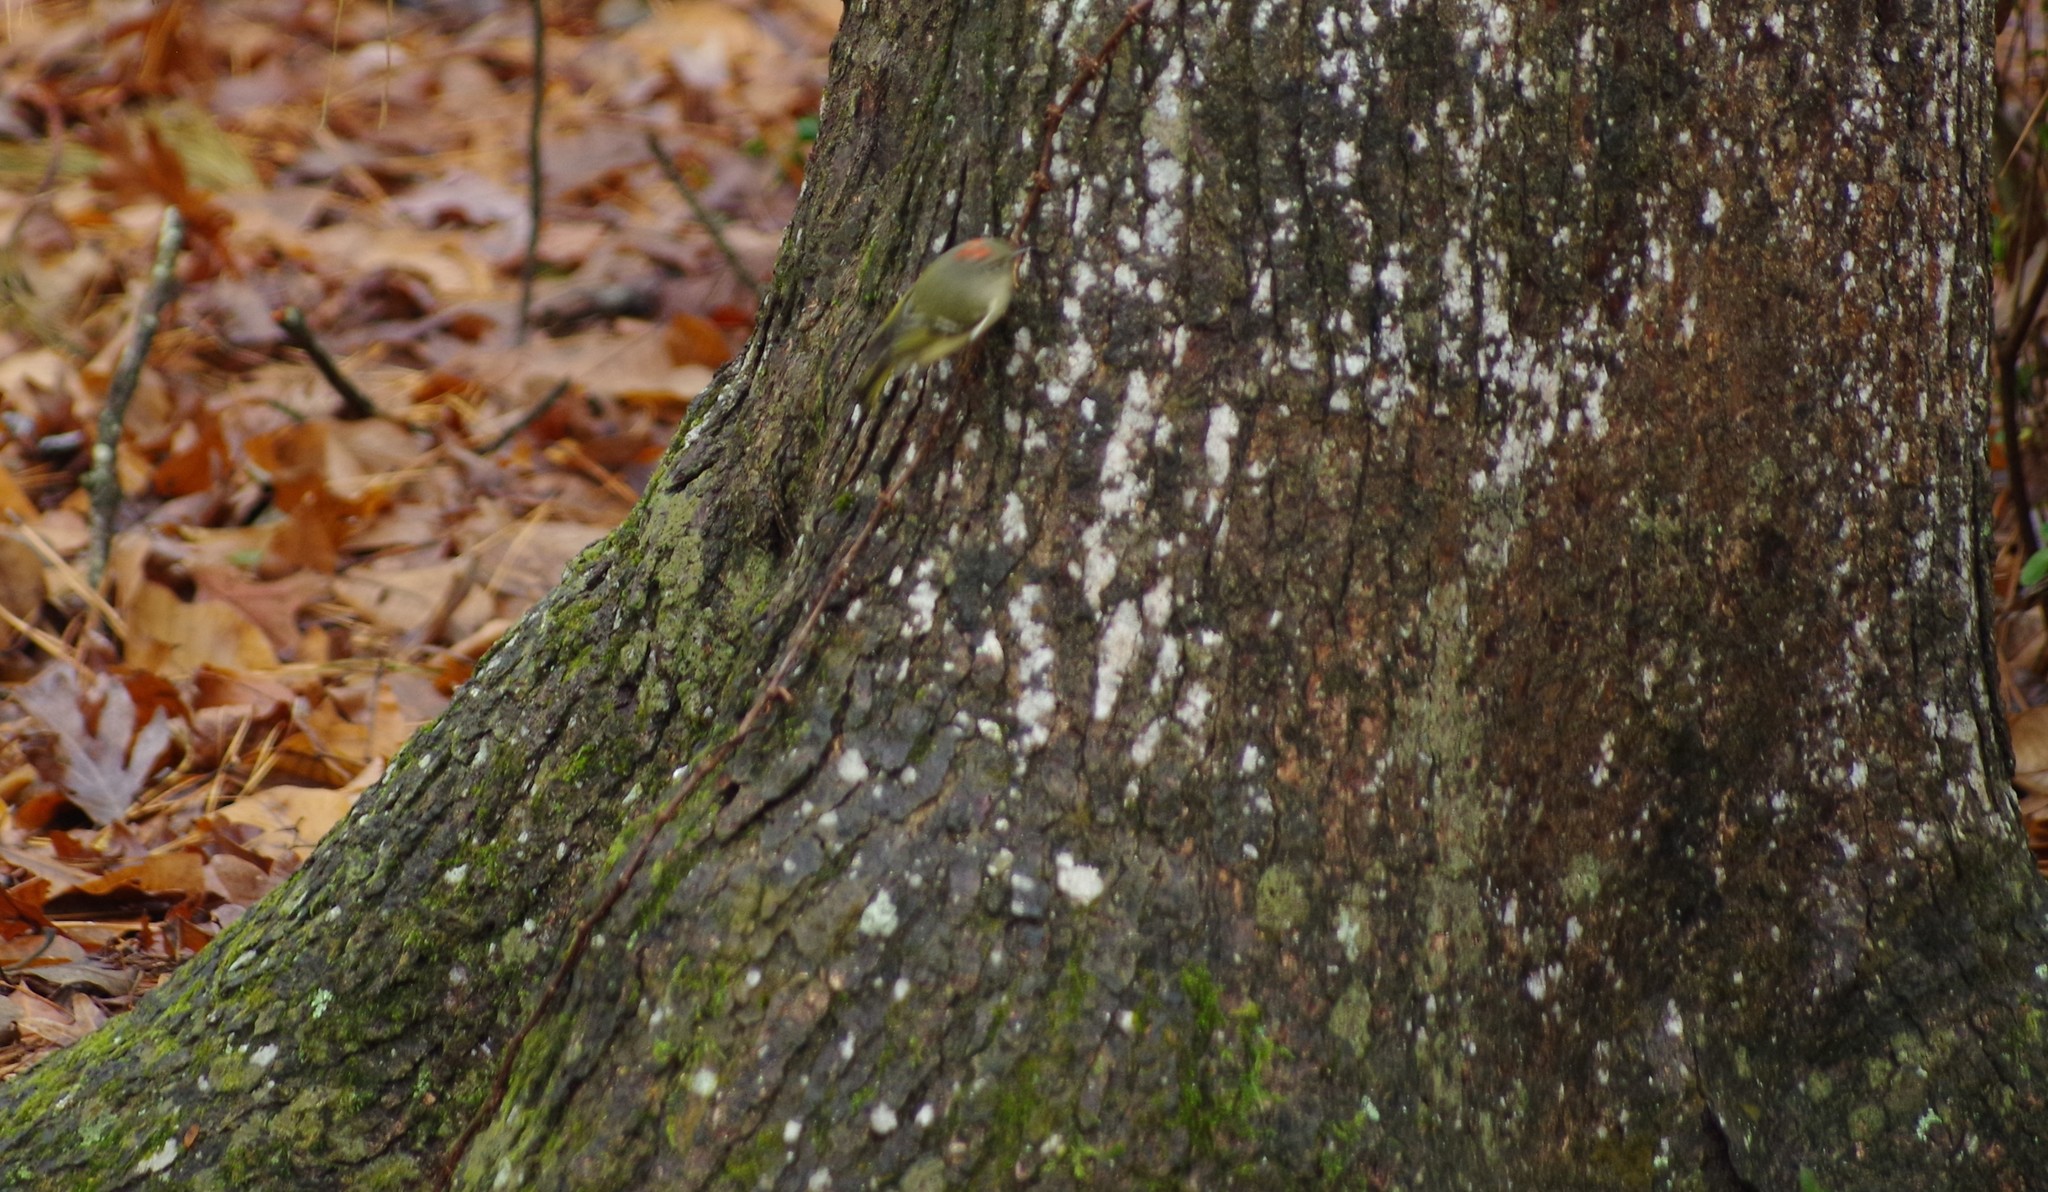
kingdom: Animalia
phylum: Chordata
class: Aves
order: Passeriformes
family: Regulidae
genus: Regulus
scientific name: Regulus calendula
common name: Ruby-crowned kinglet
